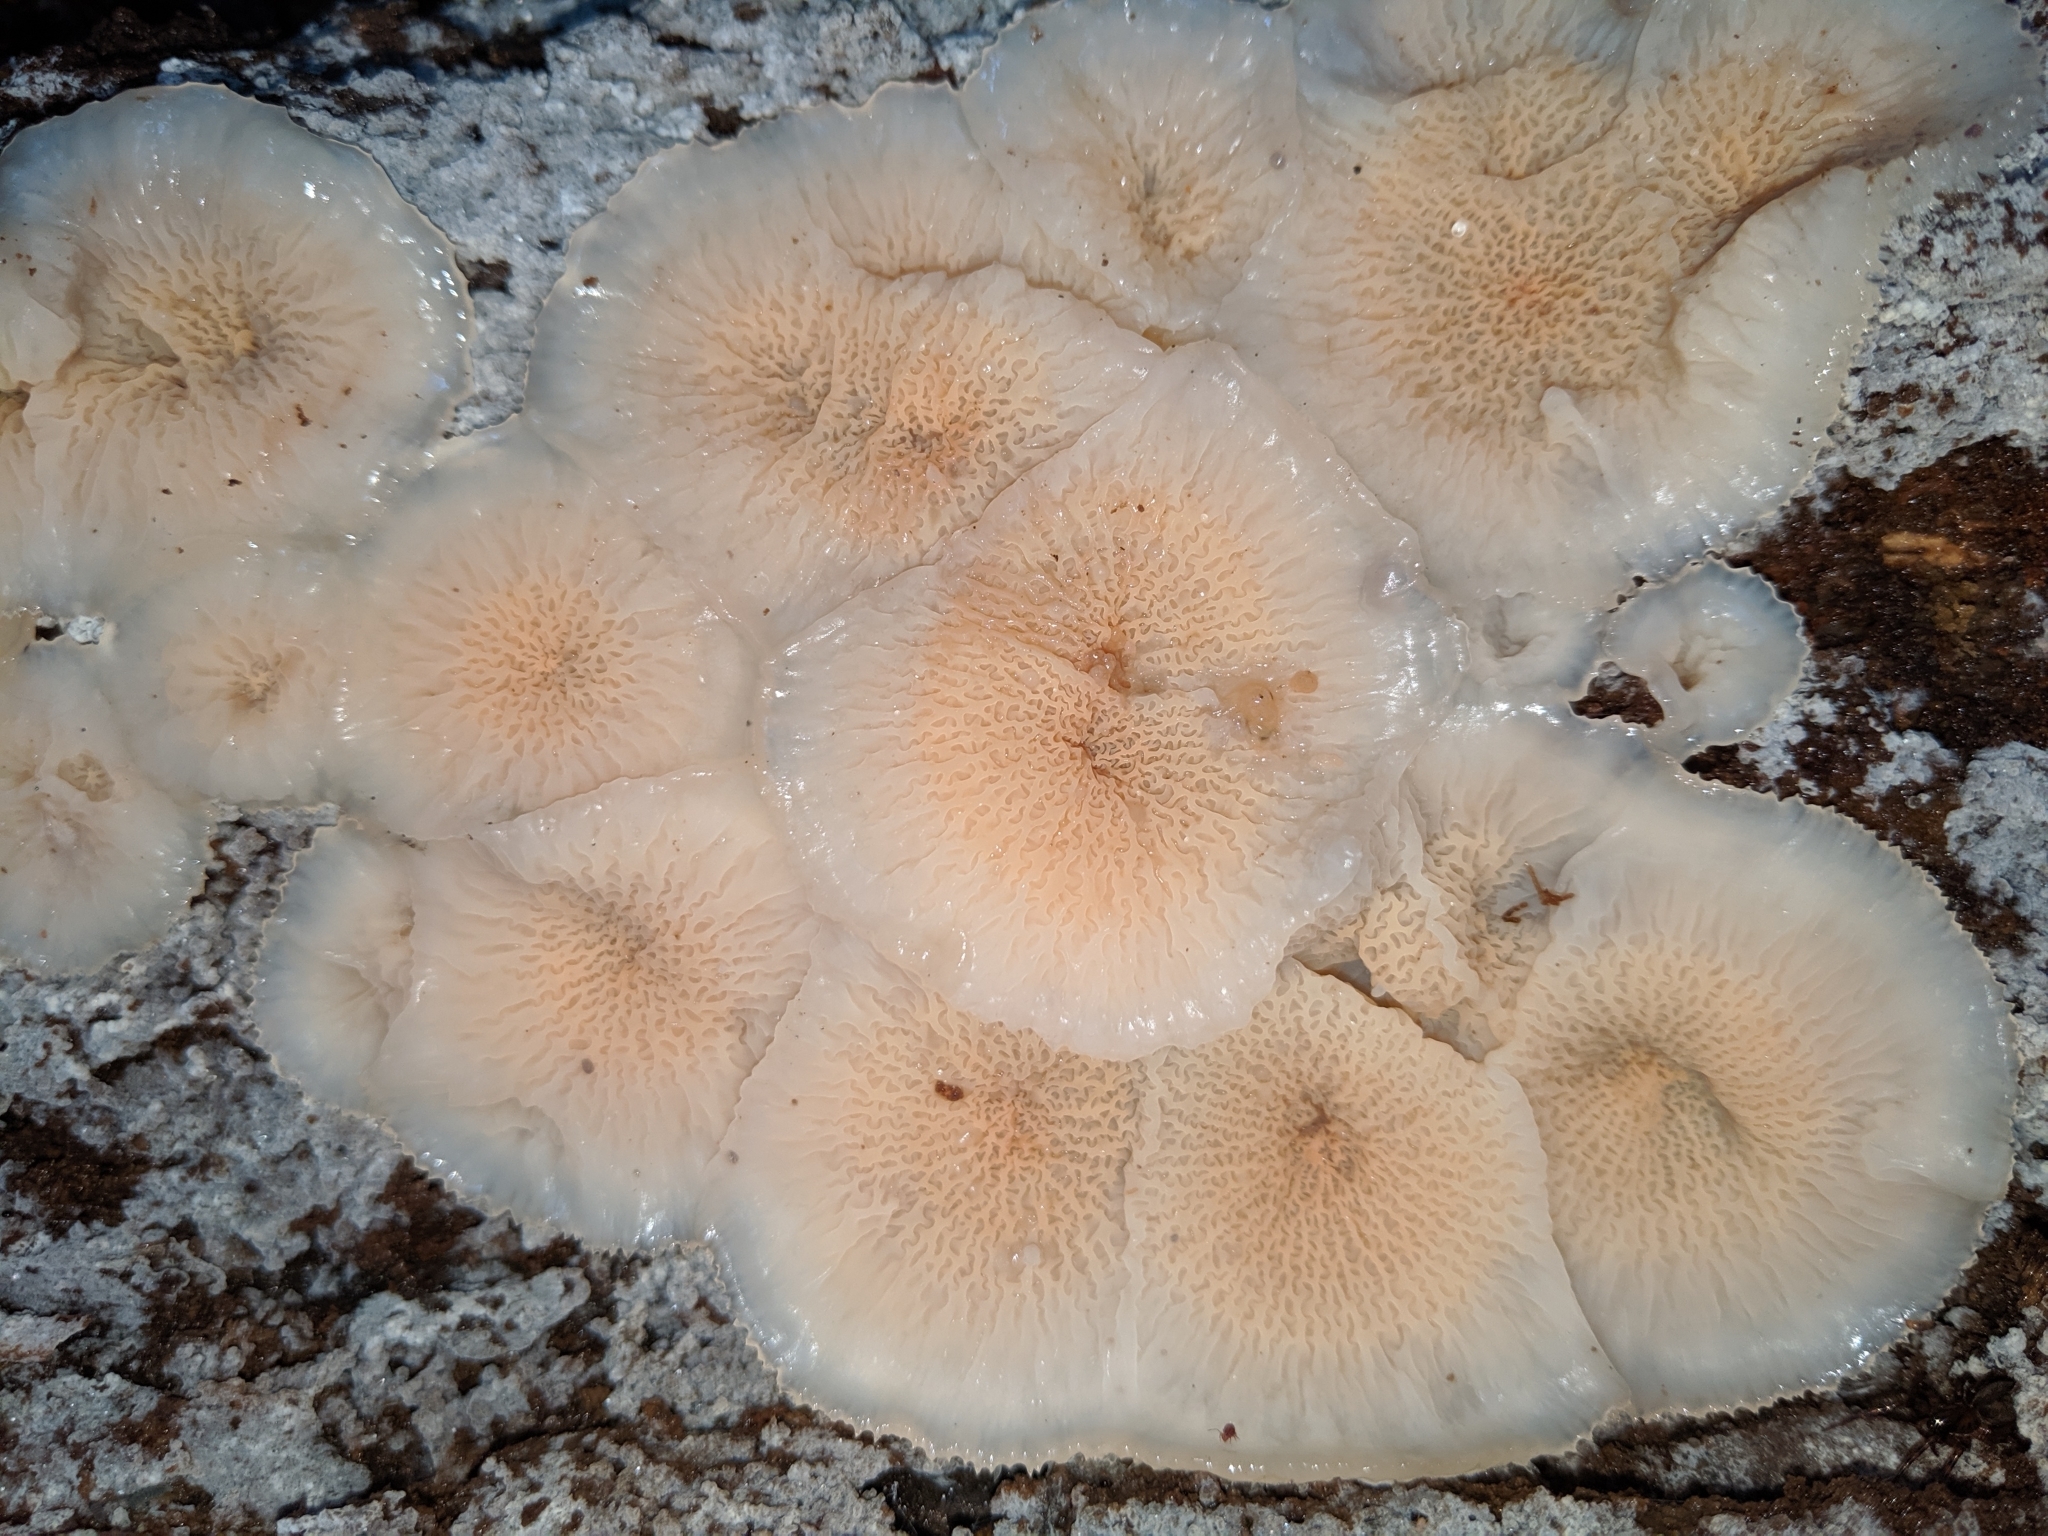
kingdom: Fungi
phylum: Basidiomycota
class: Agaricomycetes
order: Polyporales
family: Meruliaceae
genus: Phlebia
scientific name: Phlebia tremellosa
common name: Jelly rot
